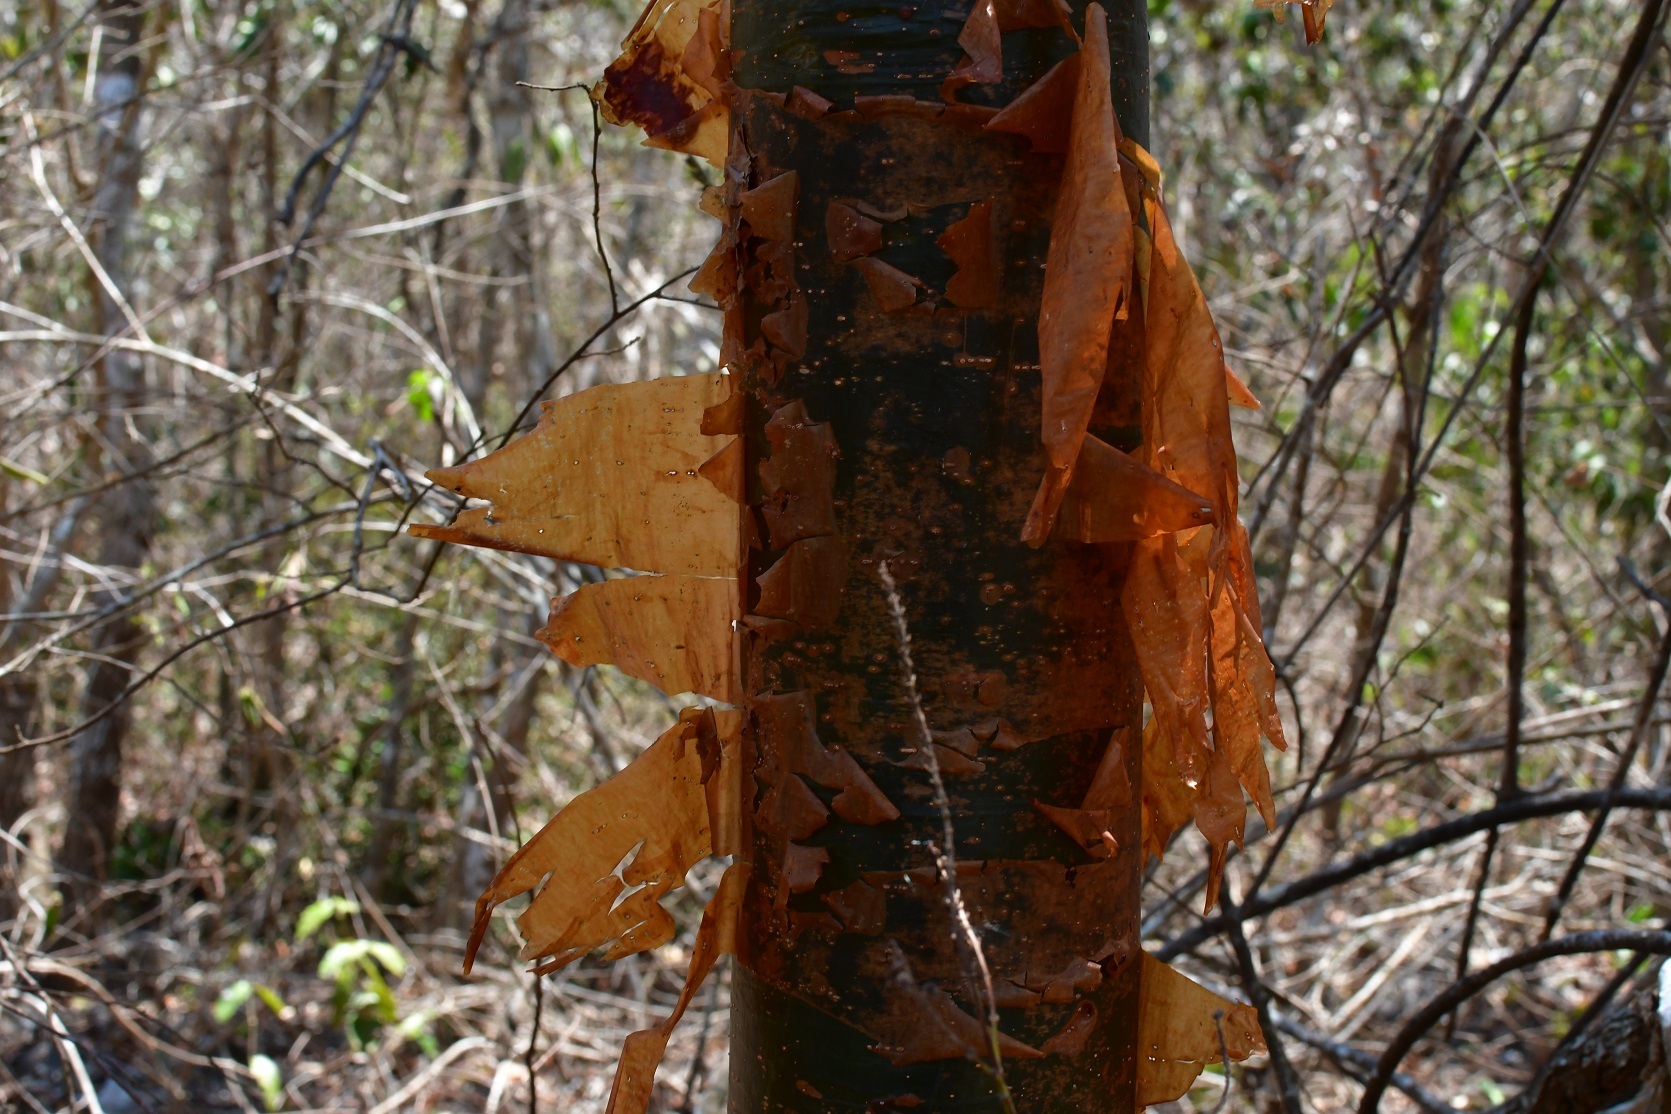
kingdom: Plantae
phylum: Tracheophyta
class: Magnoliopsida
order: Sapindales
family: Burseraceae
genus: Bursera
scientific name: Bursera simaruba
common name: Turpentine tree
